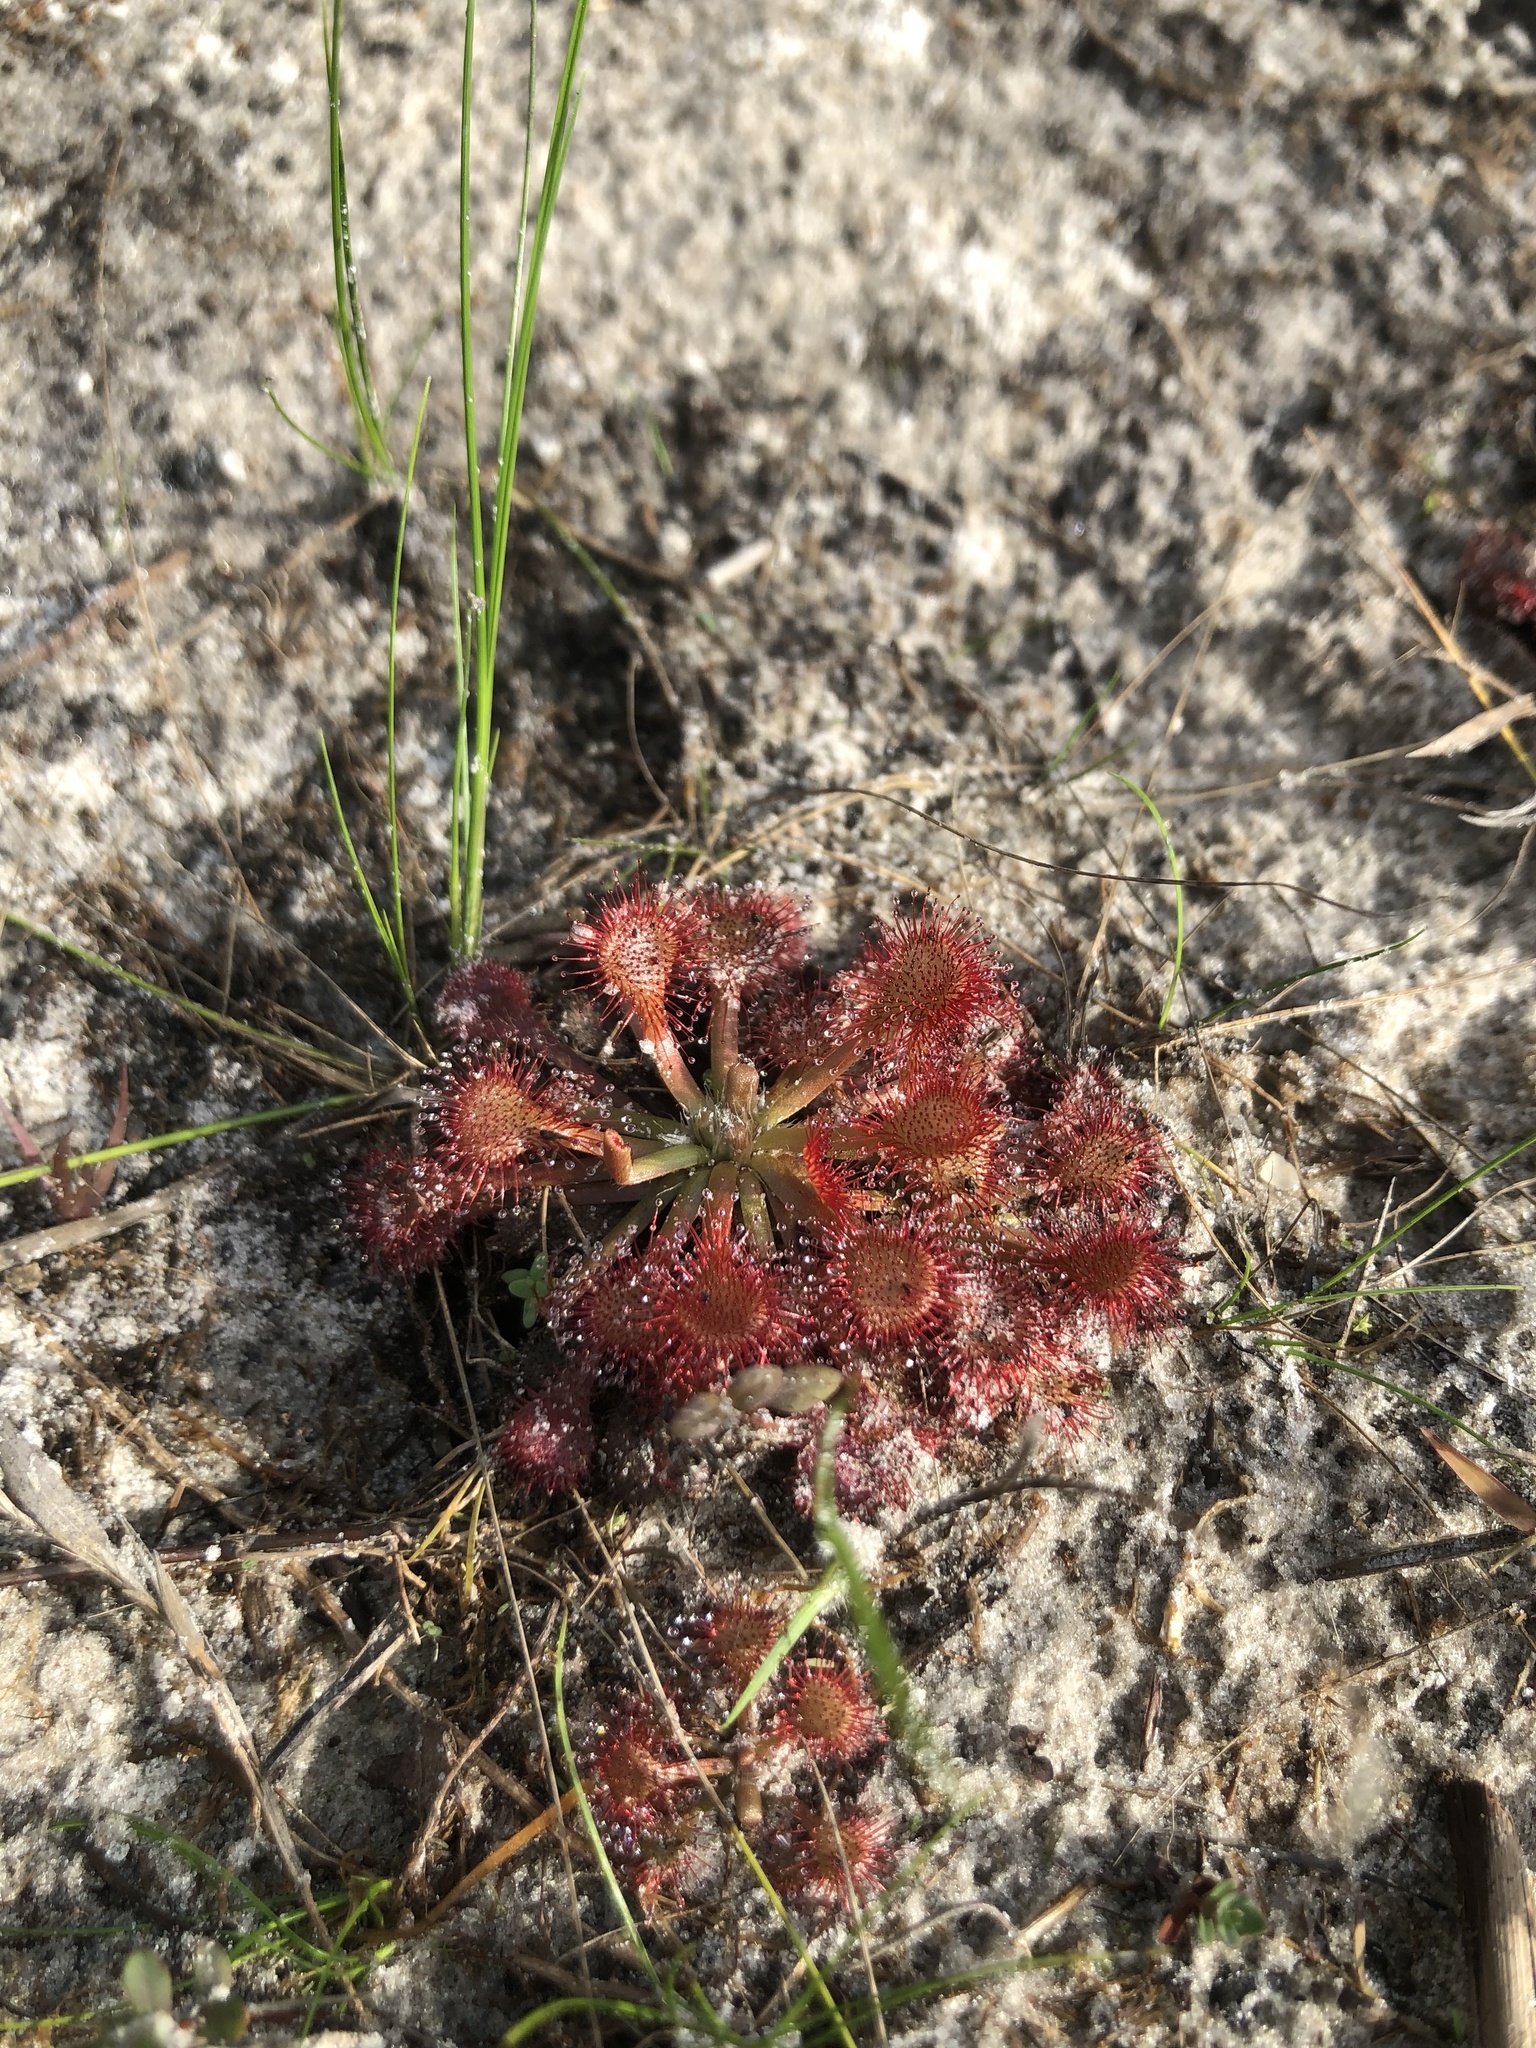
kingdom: Plantae
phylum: Tracheophyta
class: Magnoliopsida
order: Caryophyllales
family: Droseraceae
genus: Drosera
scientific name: Drosera capillaris
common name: Pink sundew
